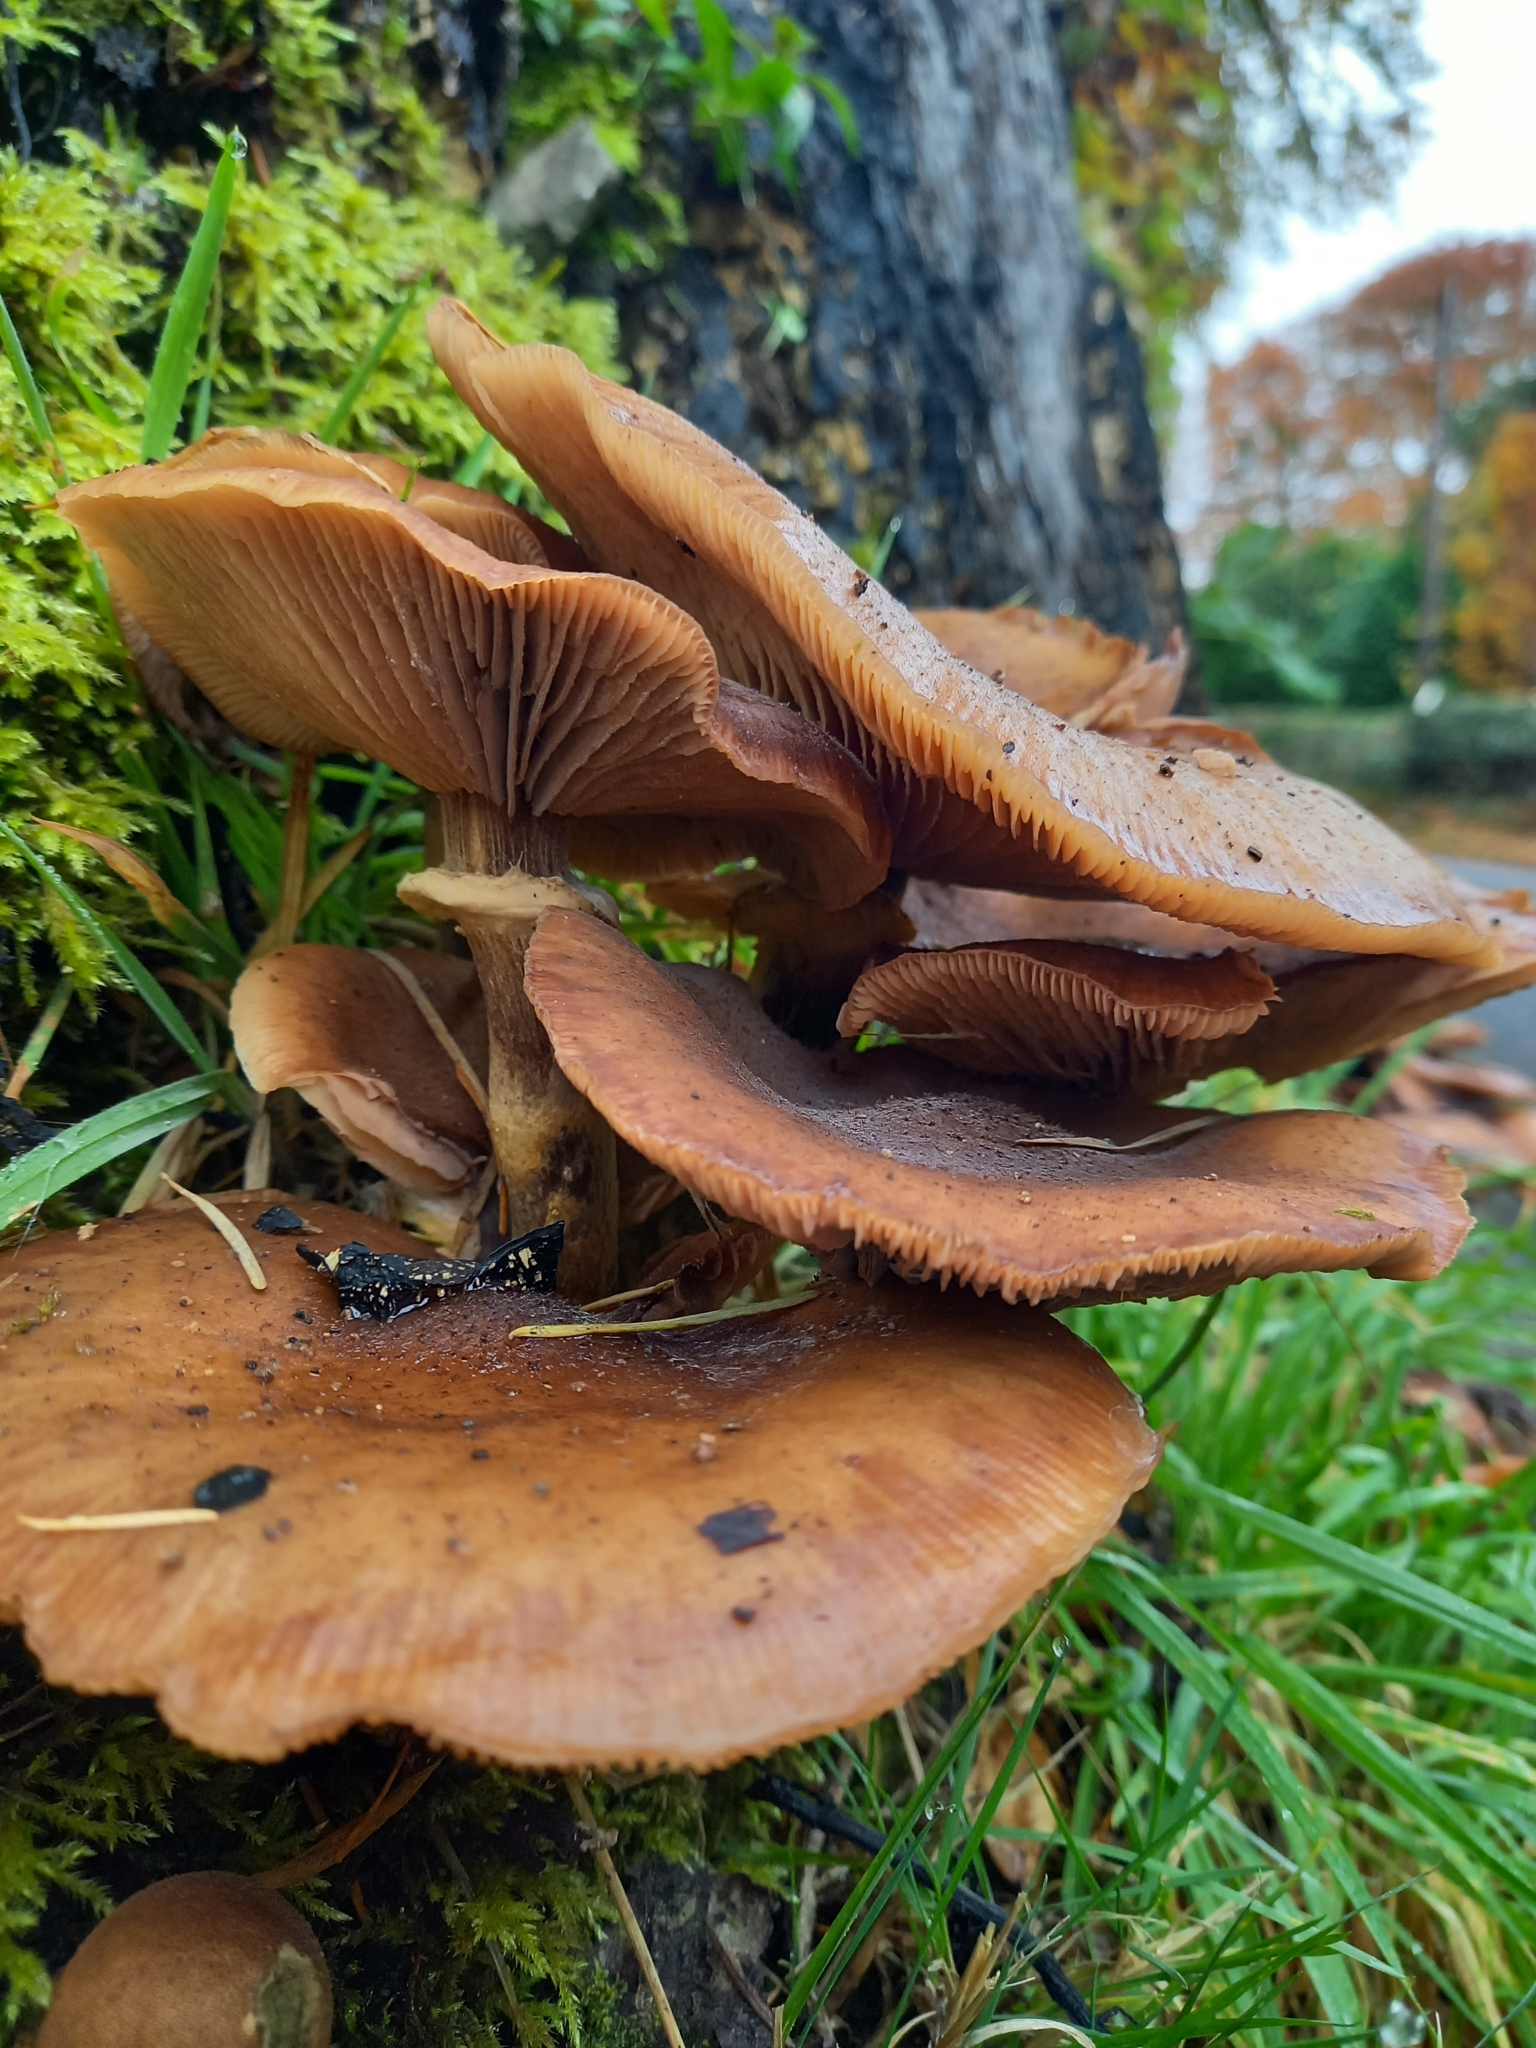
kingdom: Fungi
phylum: Basidiomycota
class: Agaricomycetes
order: Agaricales
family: Physalacriaceae
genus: Armillaria
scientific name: Armillaria mellea
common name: Honey fungus
